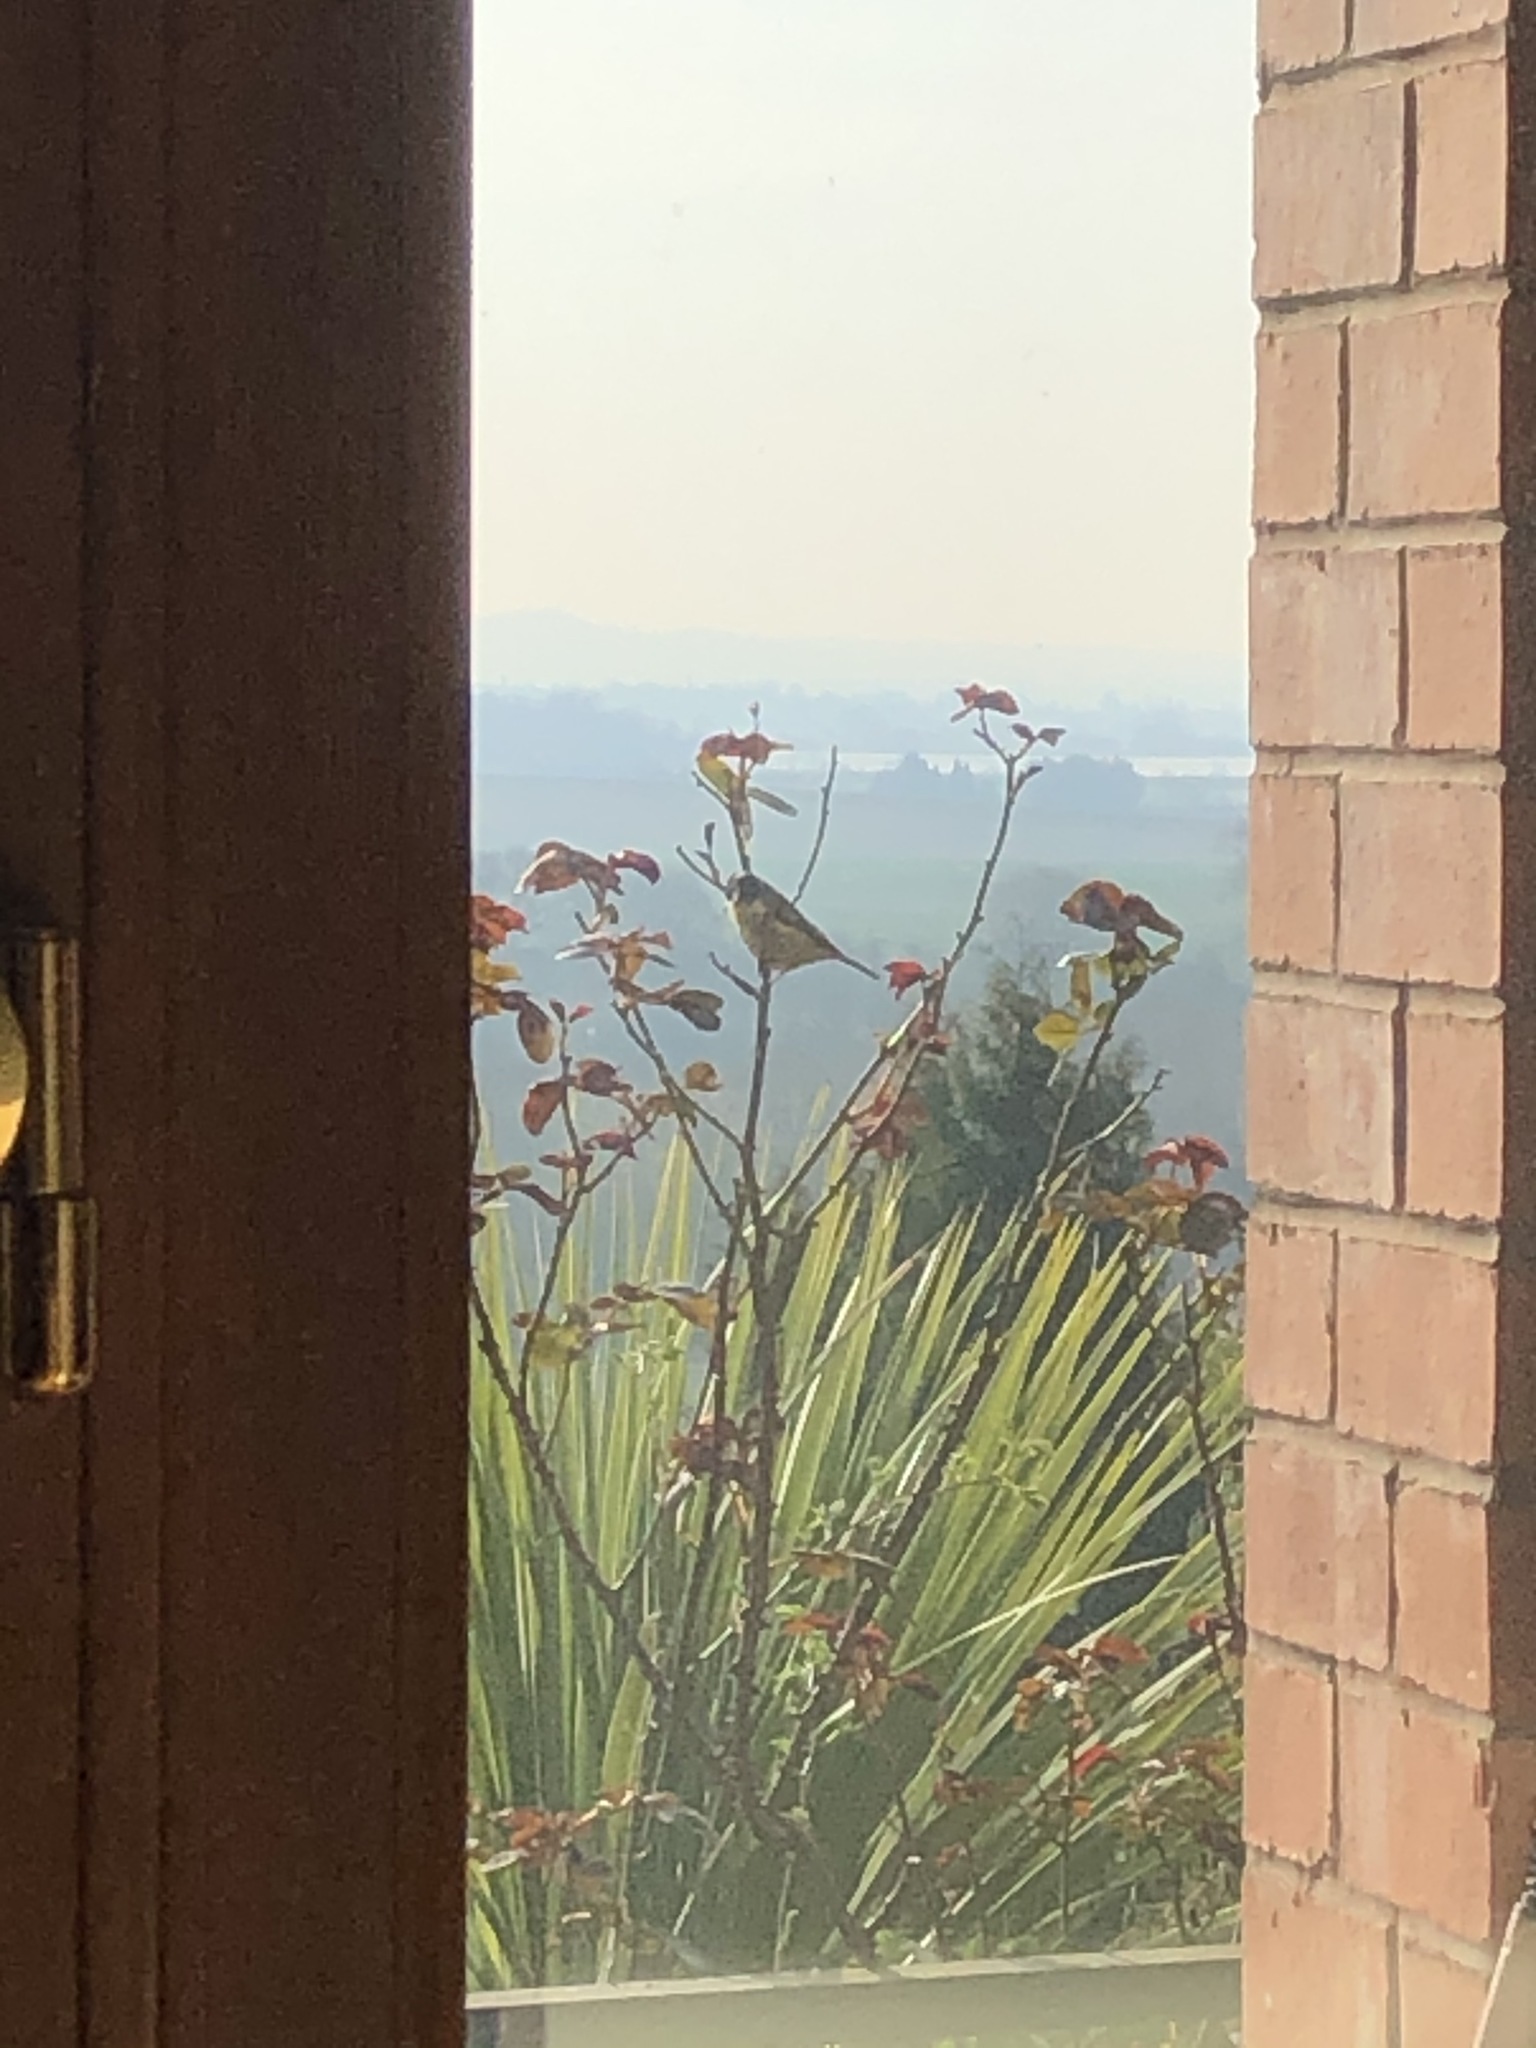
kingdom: Animalia
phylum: Chordata
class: Aves
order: Passeriformes
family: Paridae
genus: Parus
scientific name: Parus major
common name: Great tit
